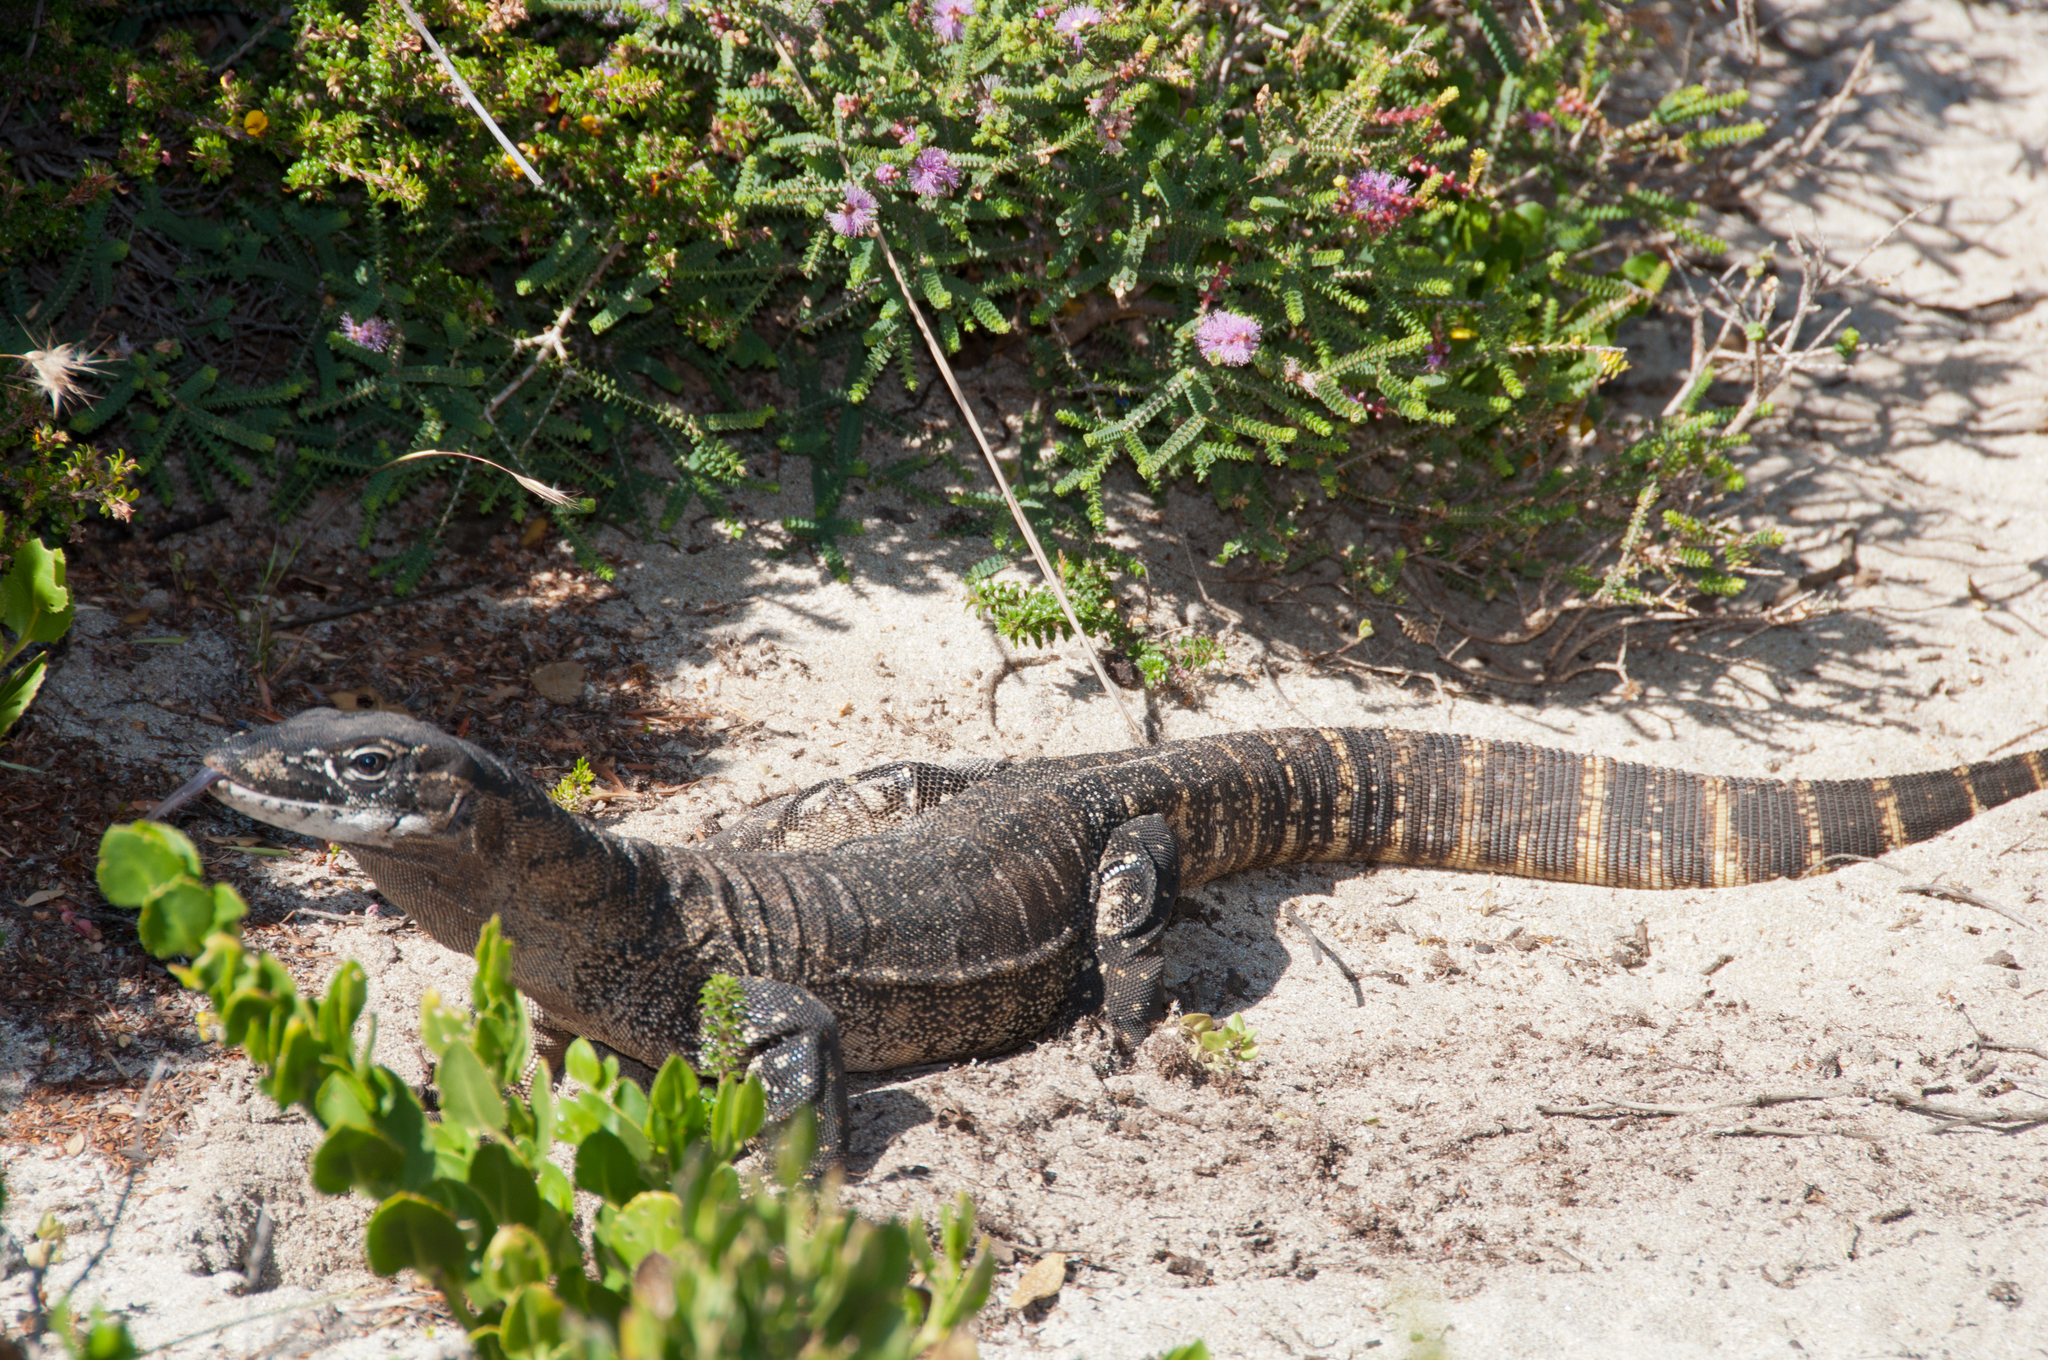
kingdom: Animalia
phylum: Chordata
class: Squamata
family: Varanidae
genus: Varanus
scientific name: Varanus rosenbergi
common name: Heath monitor
